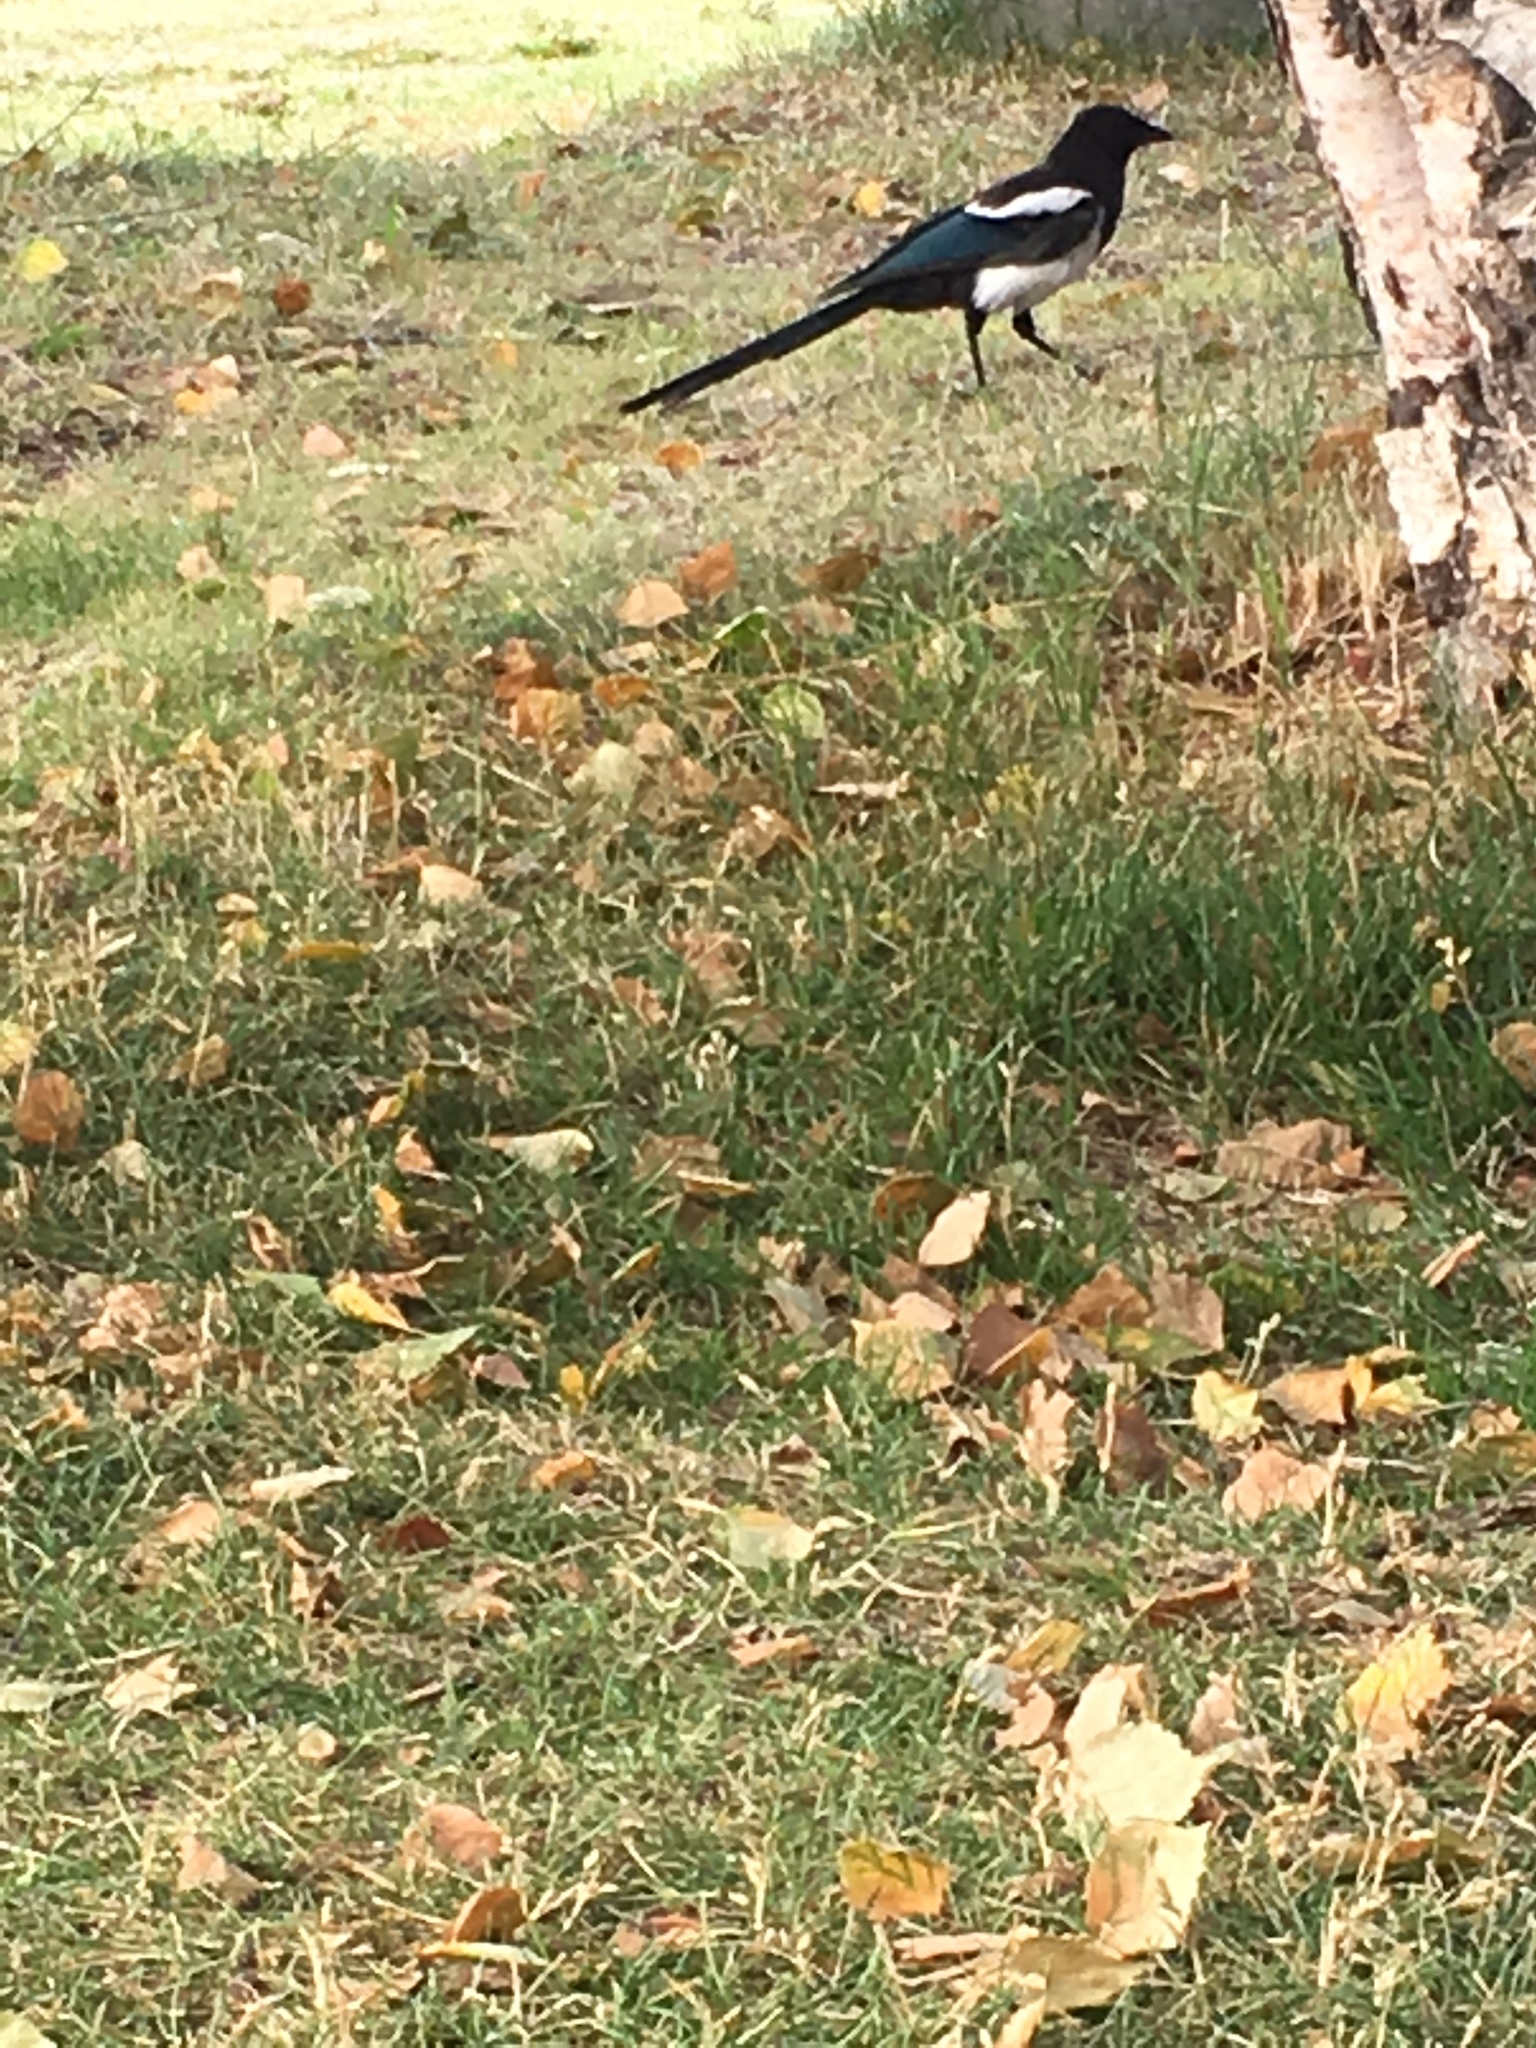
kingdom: Animalia
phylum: Chordata
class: Aves
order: Passeriformes
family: Corvidae
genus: Pica
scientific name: Pica hudsonia
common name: Black-billed magpie
